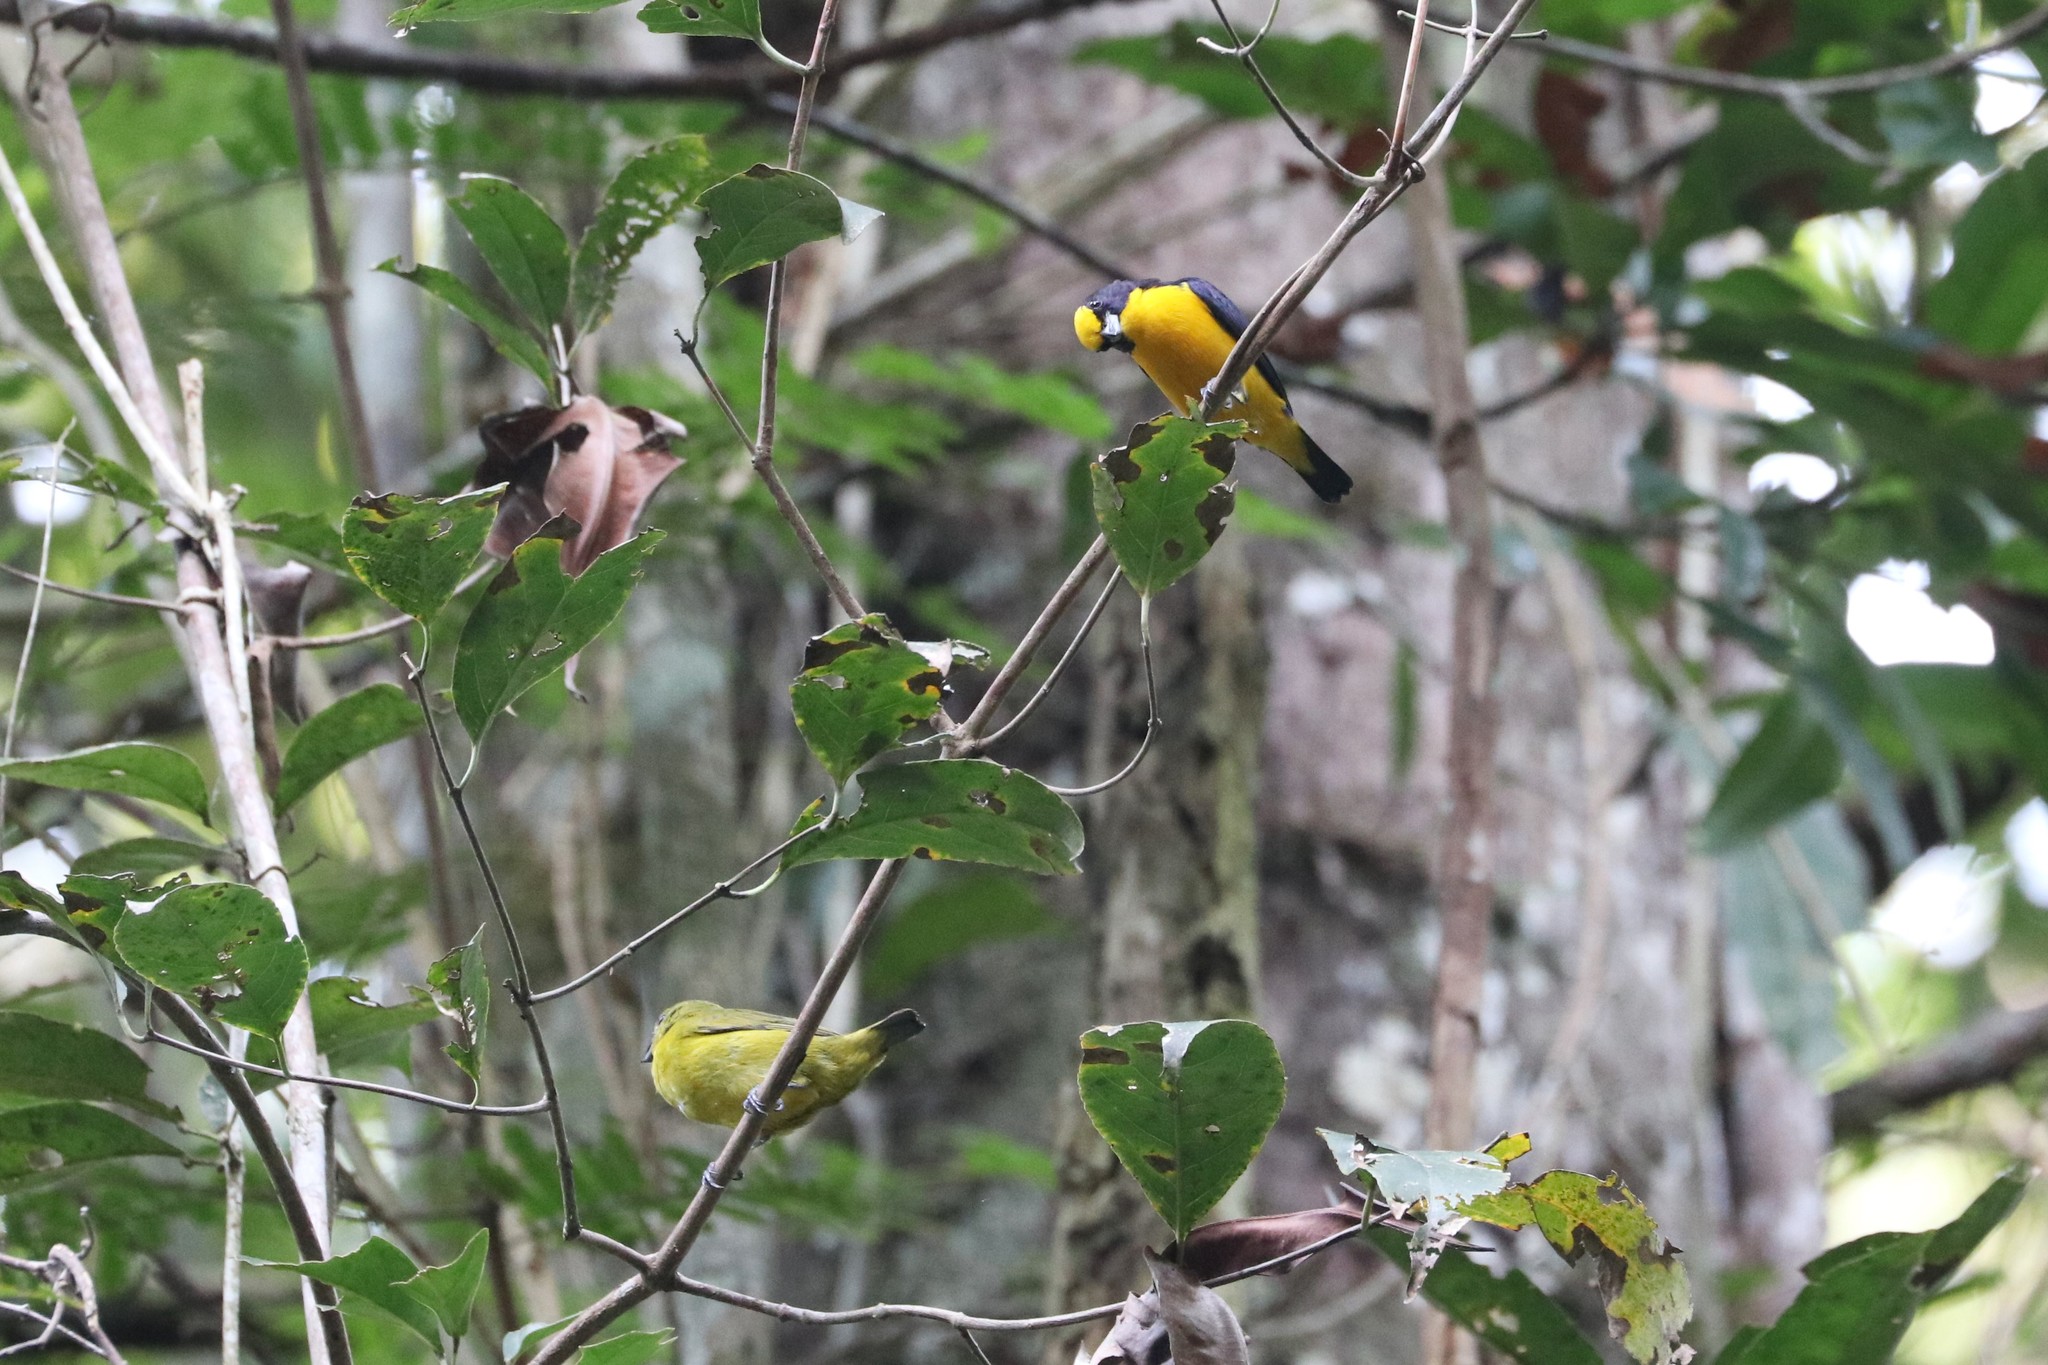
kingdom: Animalia
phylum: Chordata
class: Aves
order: Passeriformes
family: Fringillidae
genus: Euphonia
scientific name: Euphonia laniirostris
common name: Thick-billed euphonia
